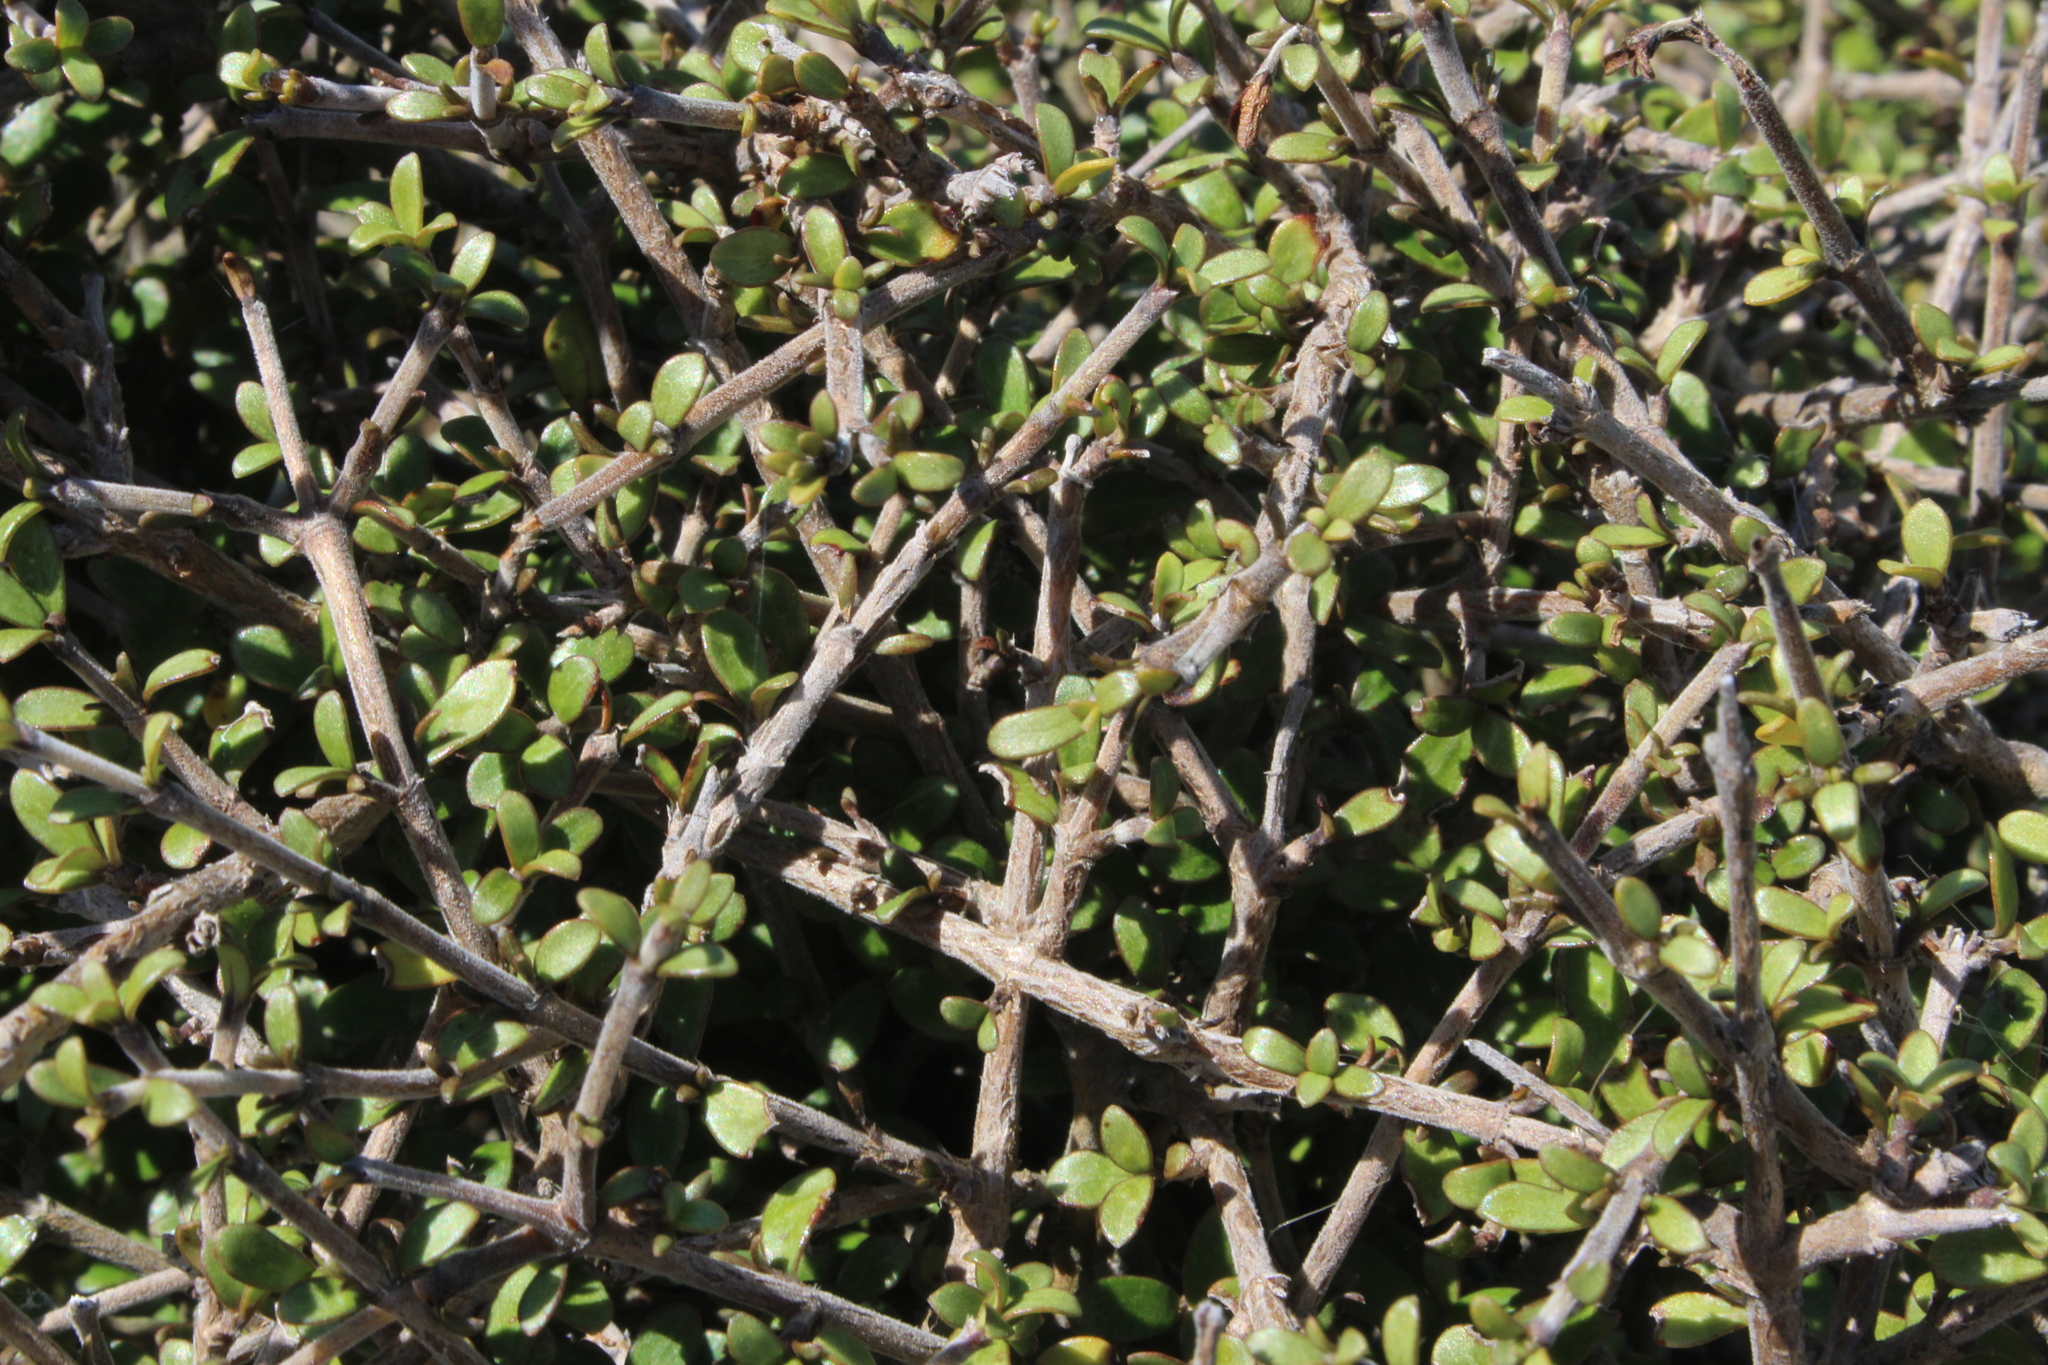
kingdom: Plantae
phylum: Tracheophyta
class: Magnoliopsida
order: Gentianales
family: Rubiaceae
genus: Coprosma
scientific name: Coprosma dumosa
